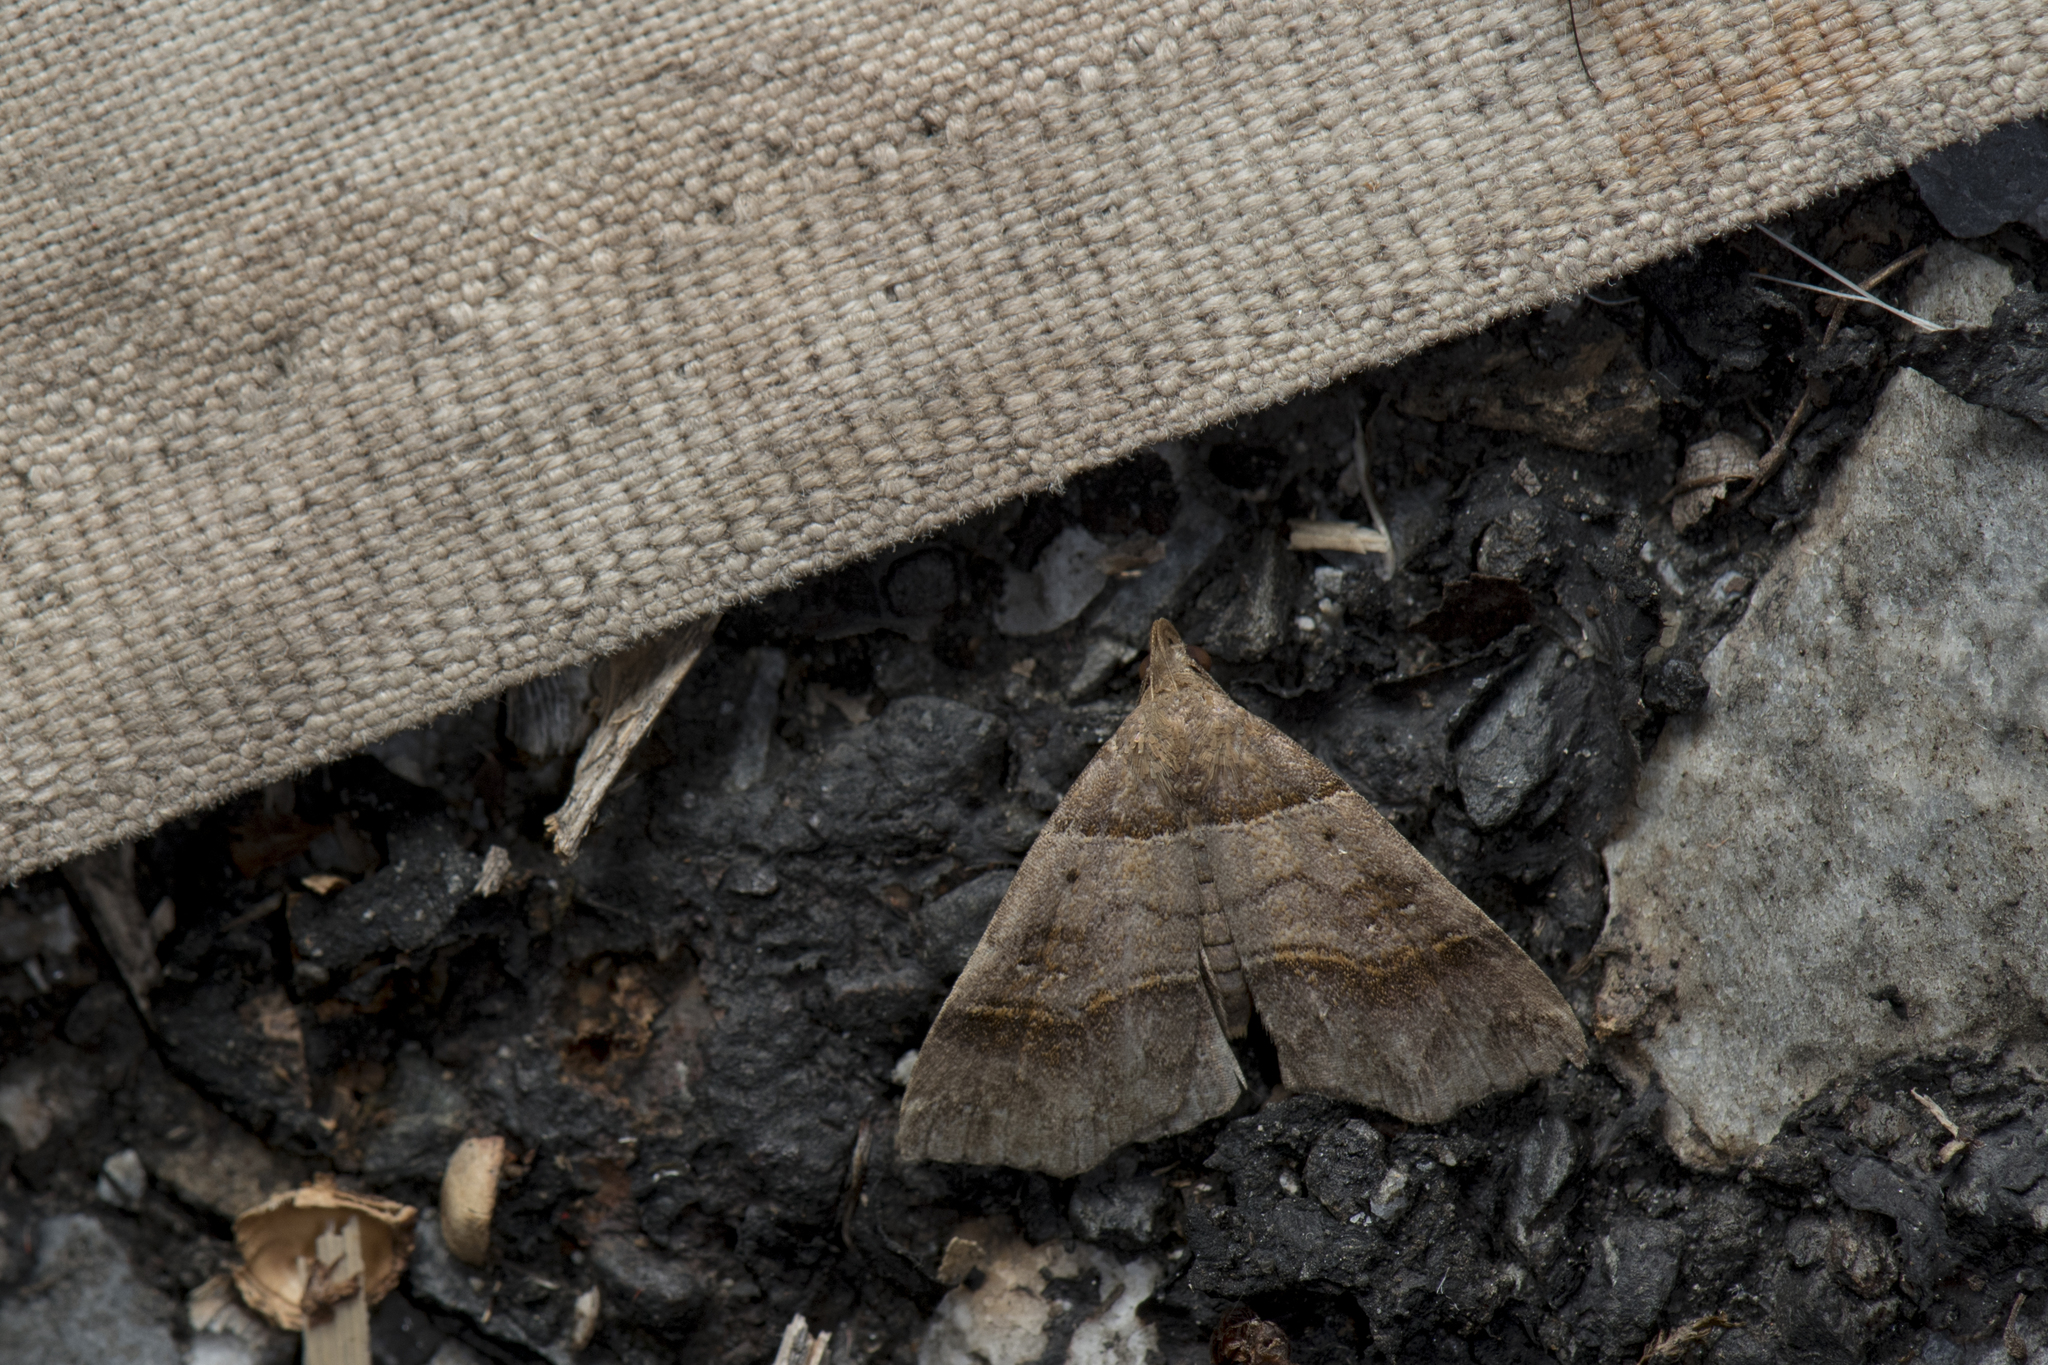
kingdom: Animalia
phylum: Arthropoda
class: Insecta
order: Lepidoptera
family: Erebidae
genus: Bertula
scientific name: Bertula kosemponica
